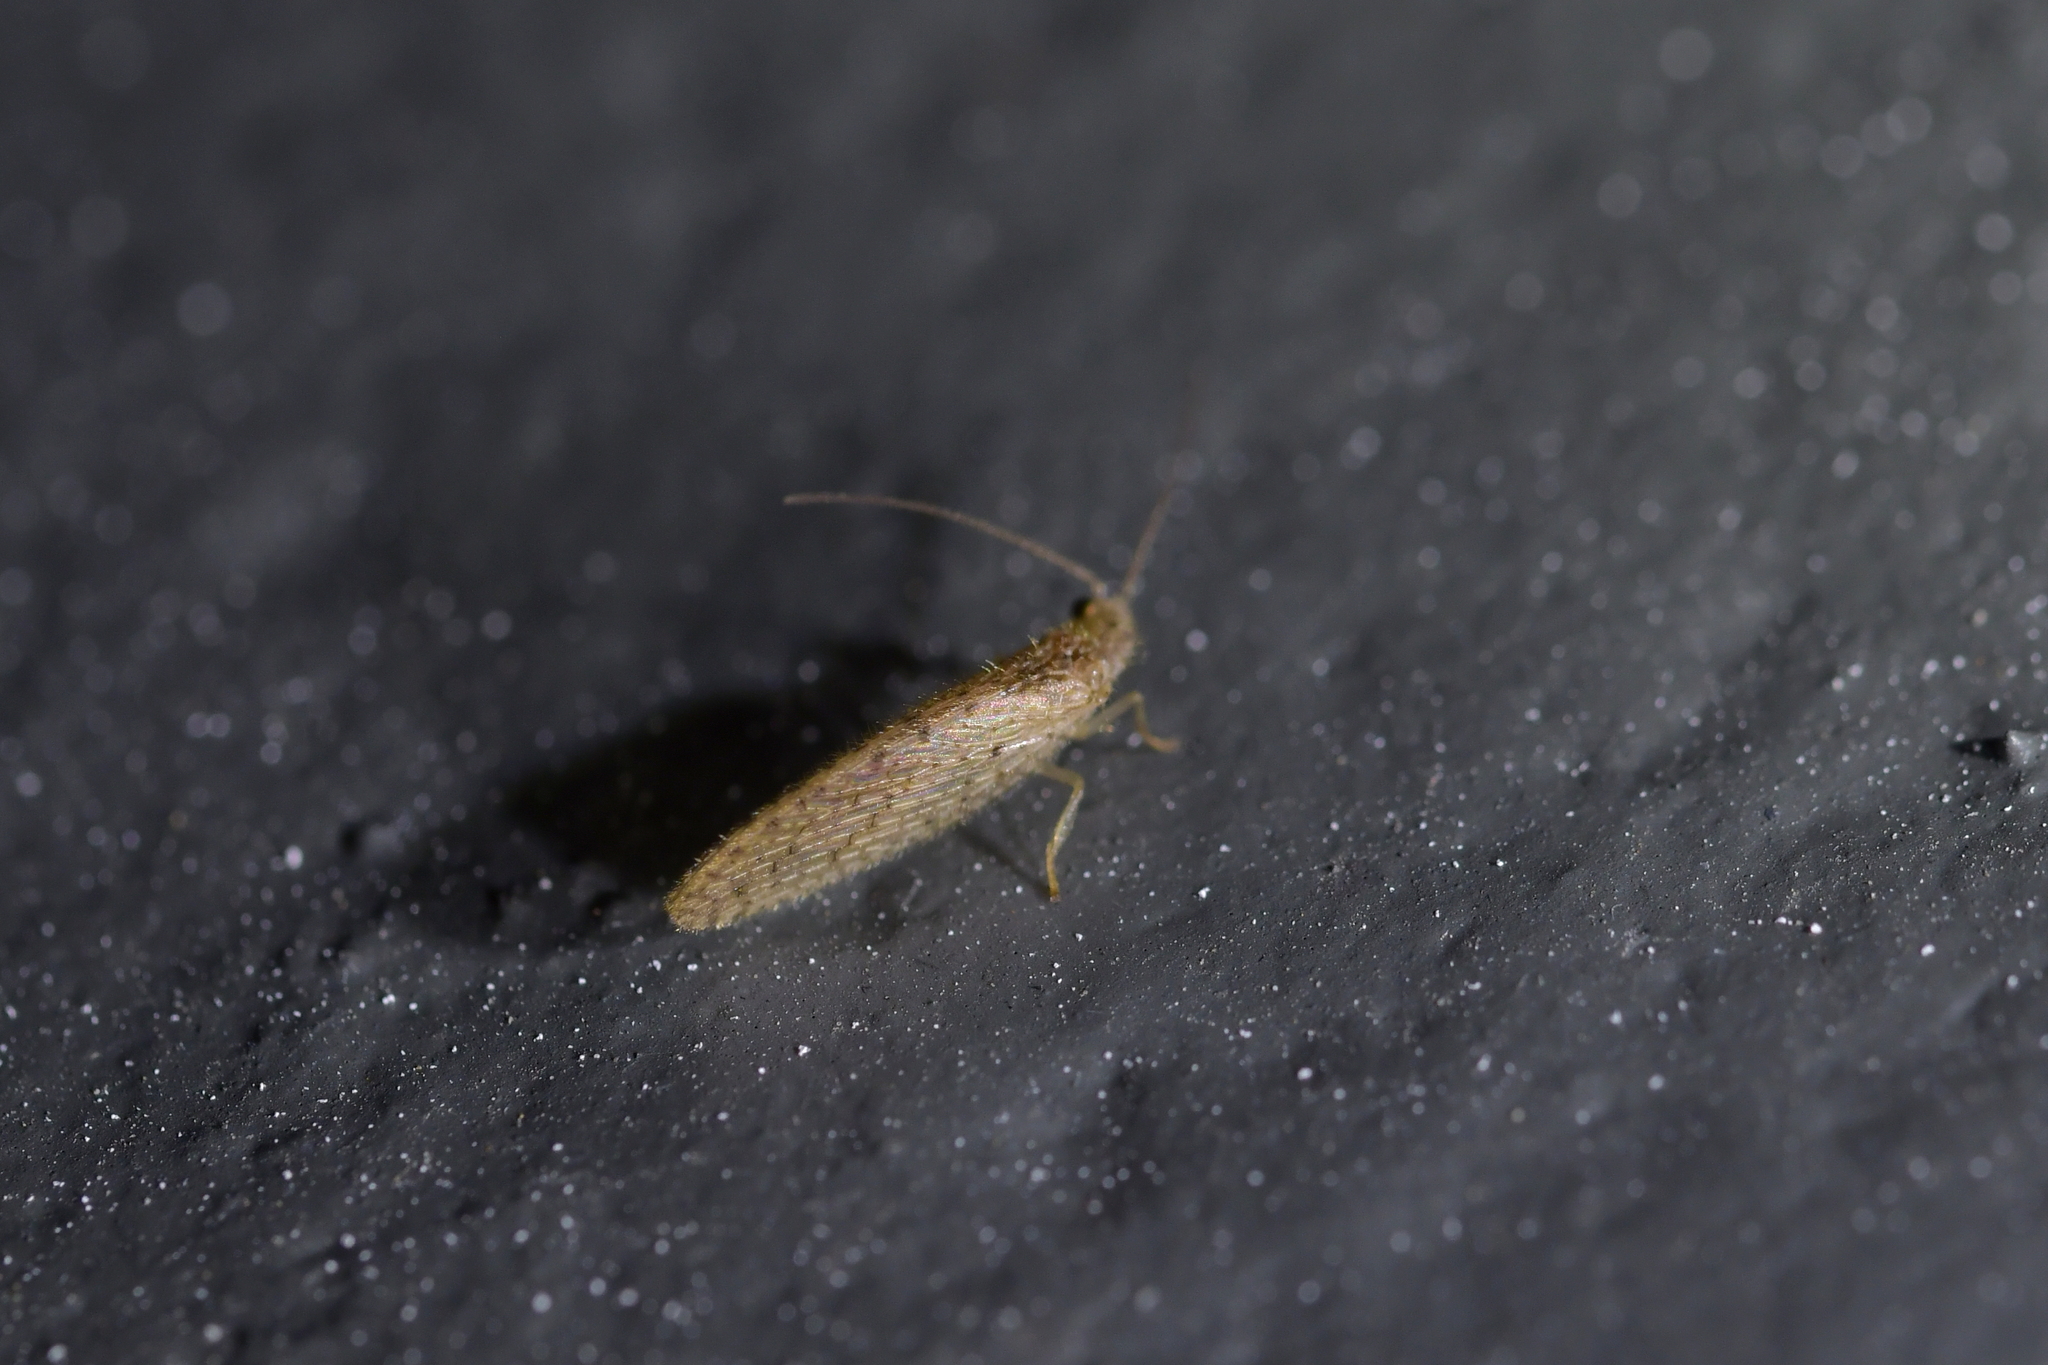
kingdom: Animalia
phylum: Arthropoda
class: Insecta
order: Neuroptera
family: Hemerobiidae
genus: Micromus
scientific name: Micromus tasmaniae
